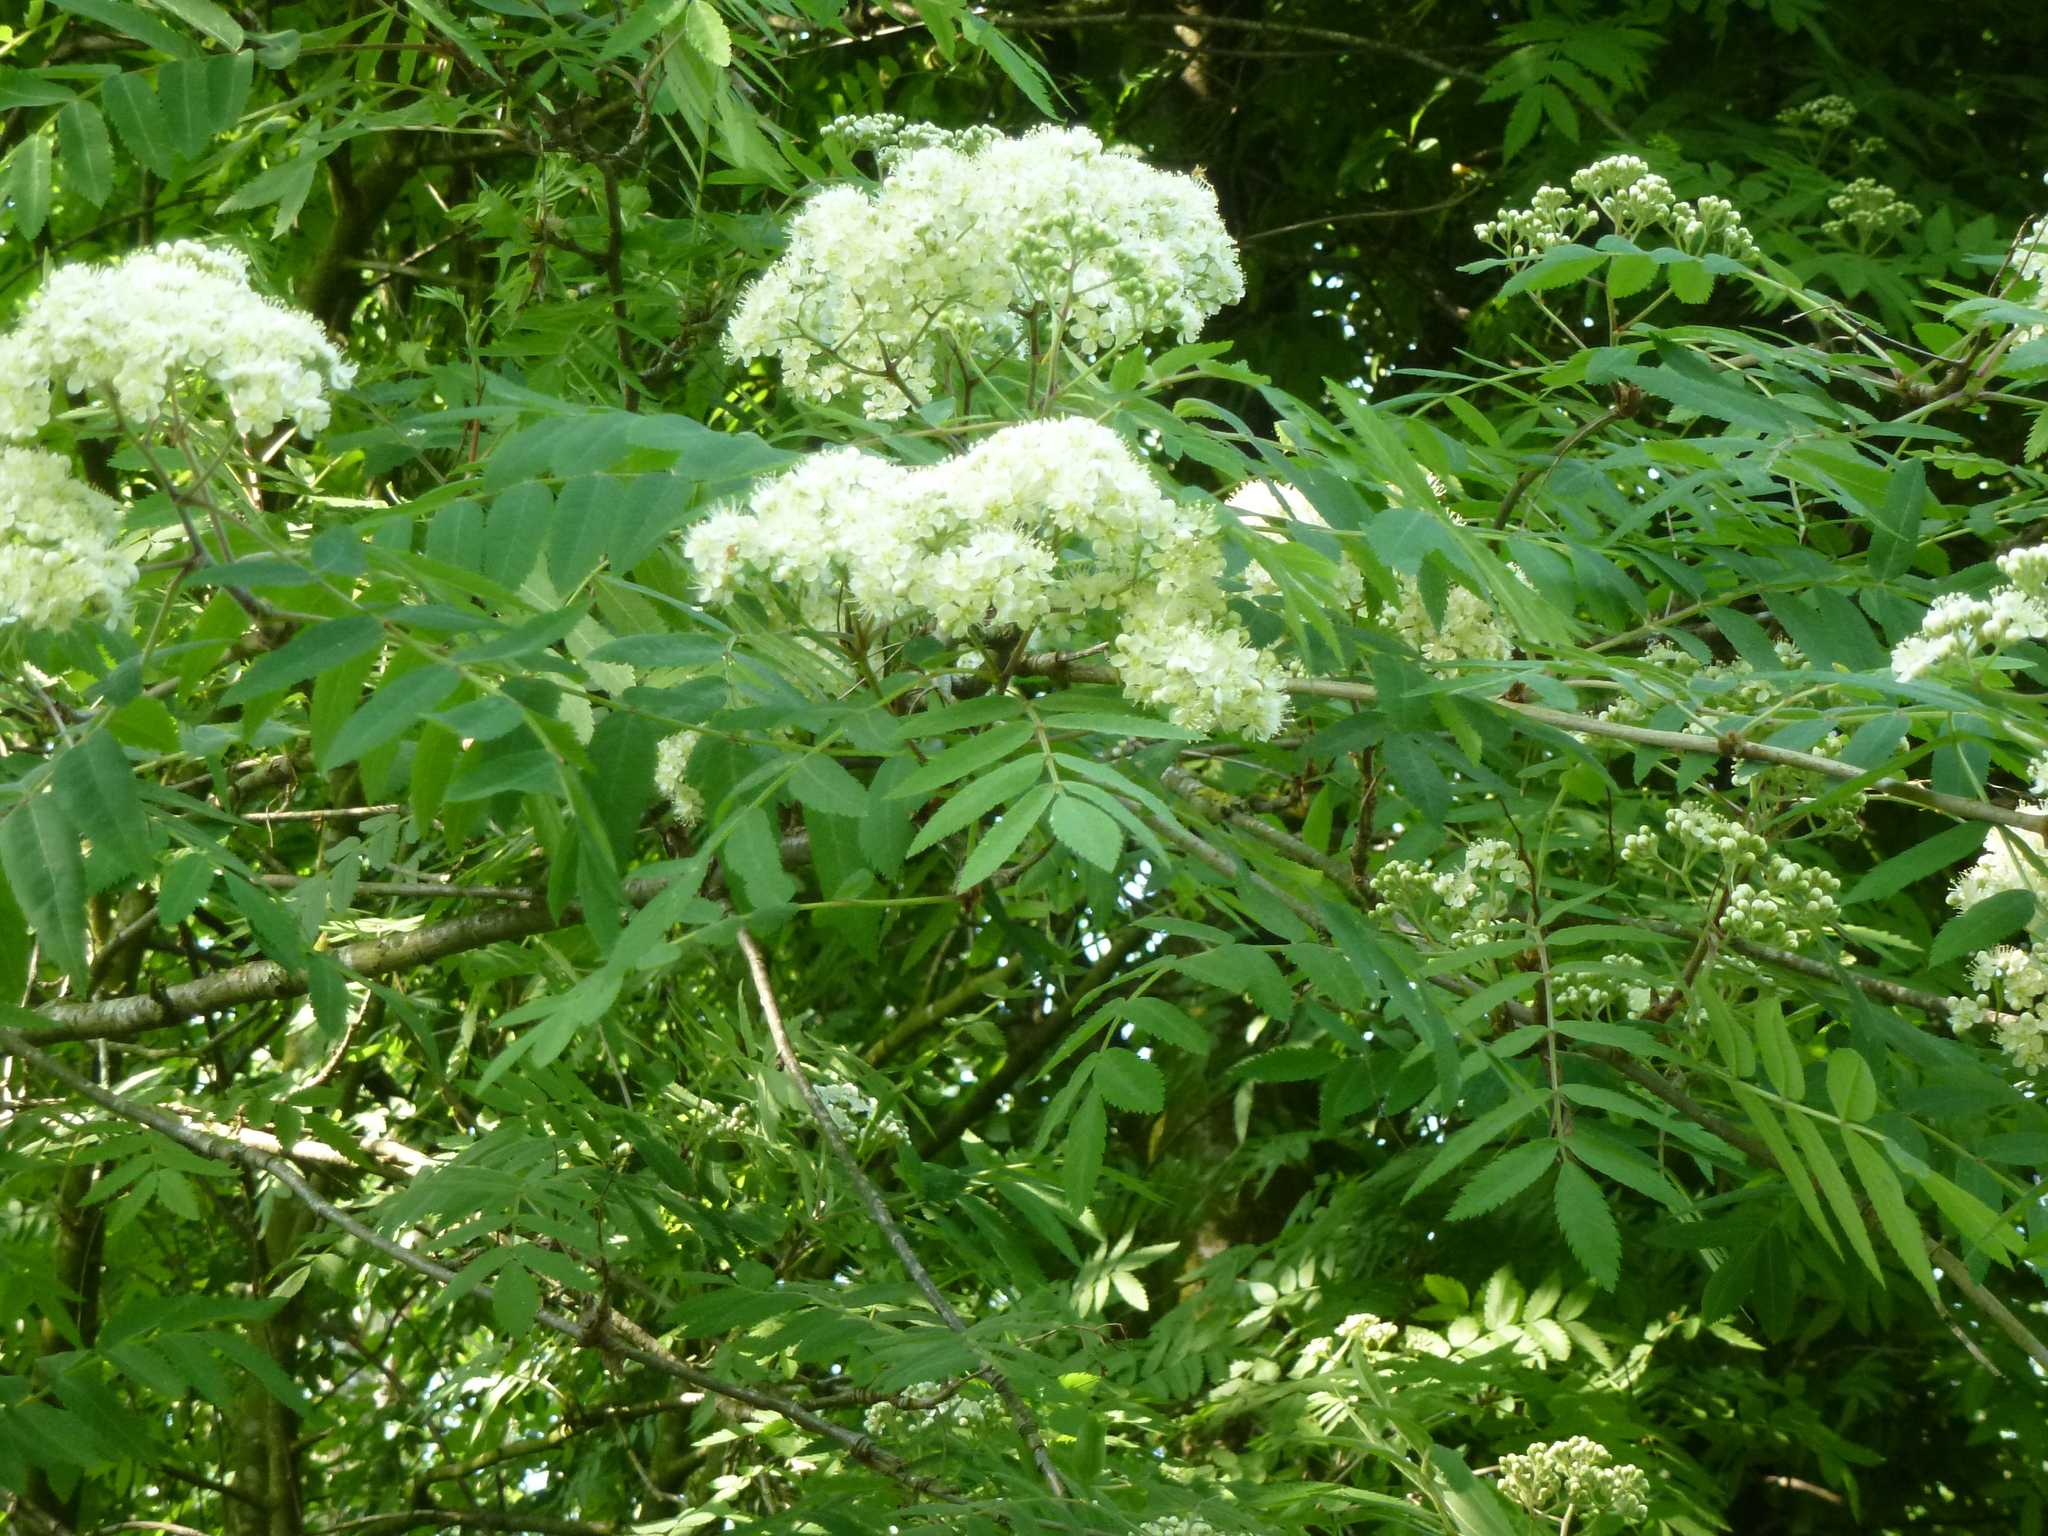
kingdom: Plantae
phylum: Tracheophyta
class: Magnoliopsida
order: Rosales
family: Rosaceae
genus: Sorbus
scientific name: Sorbus aucuparia
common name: Rowan
